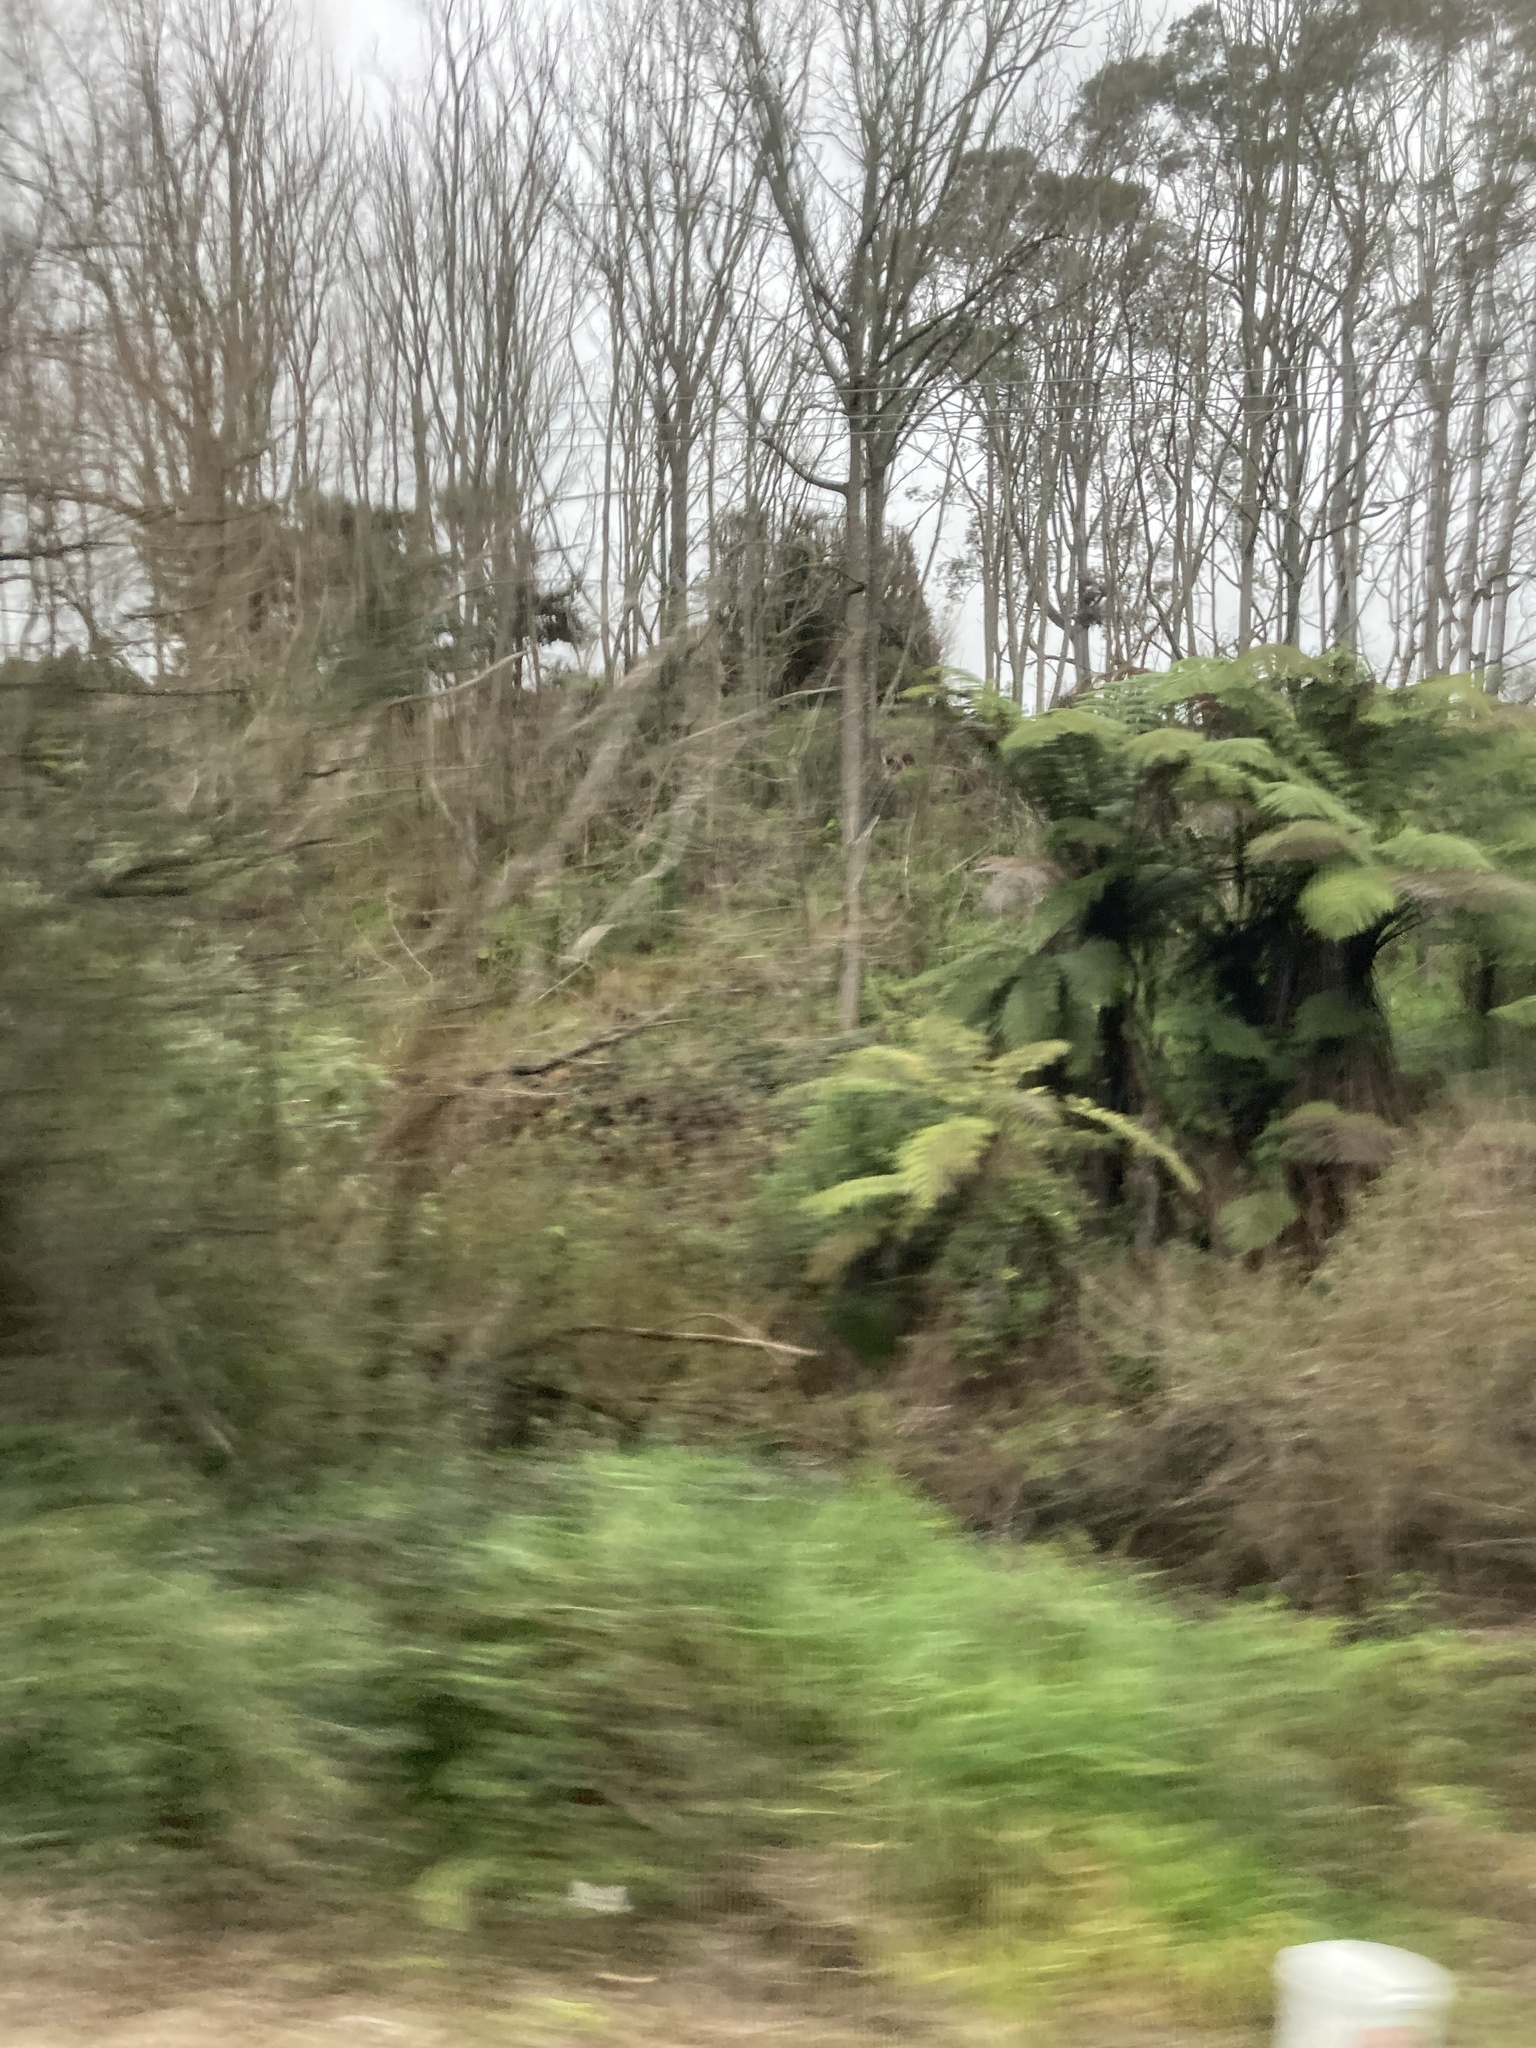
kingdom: Plantae
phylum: Tracheophyta
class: Polypodiopsida
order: Cyatheales
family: Cyatheaceae
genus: Sphaeropteris
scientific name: Sphaeropteris medullaris
